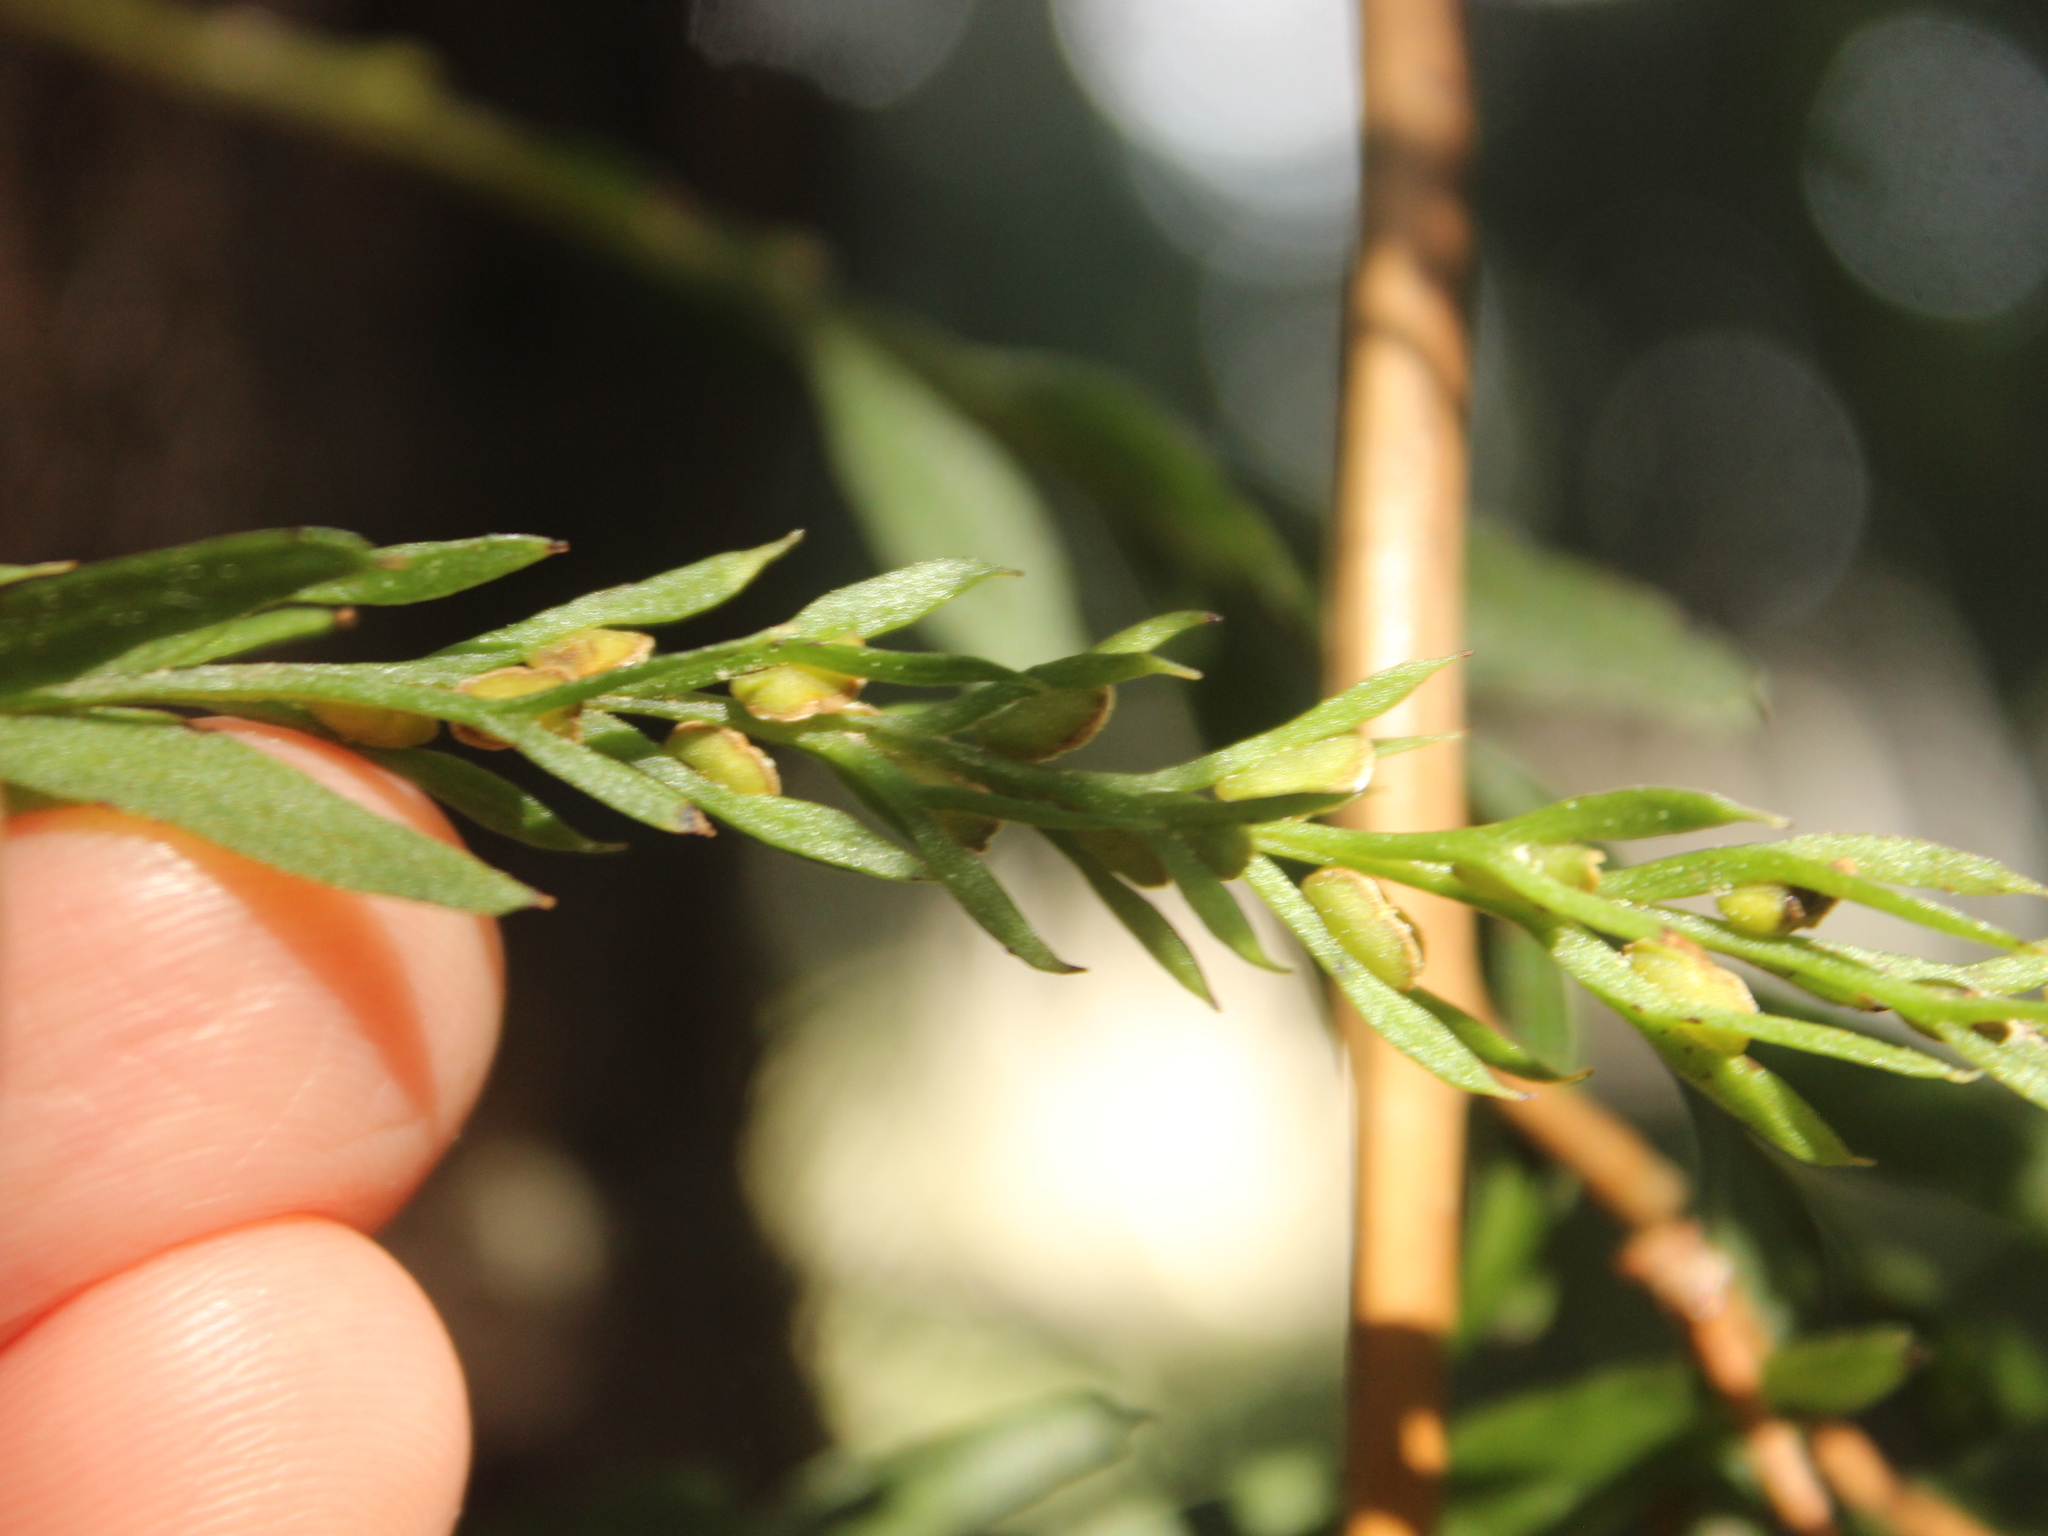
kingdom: Plantae
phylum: Tracheophyta
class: Polypodiopsida
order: Psilotales
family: Psilotaceae
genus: Tmesipteris
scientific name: Tmesipteris elongata
